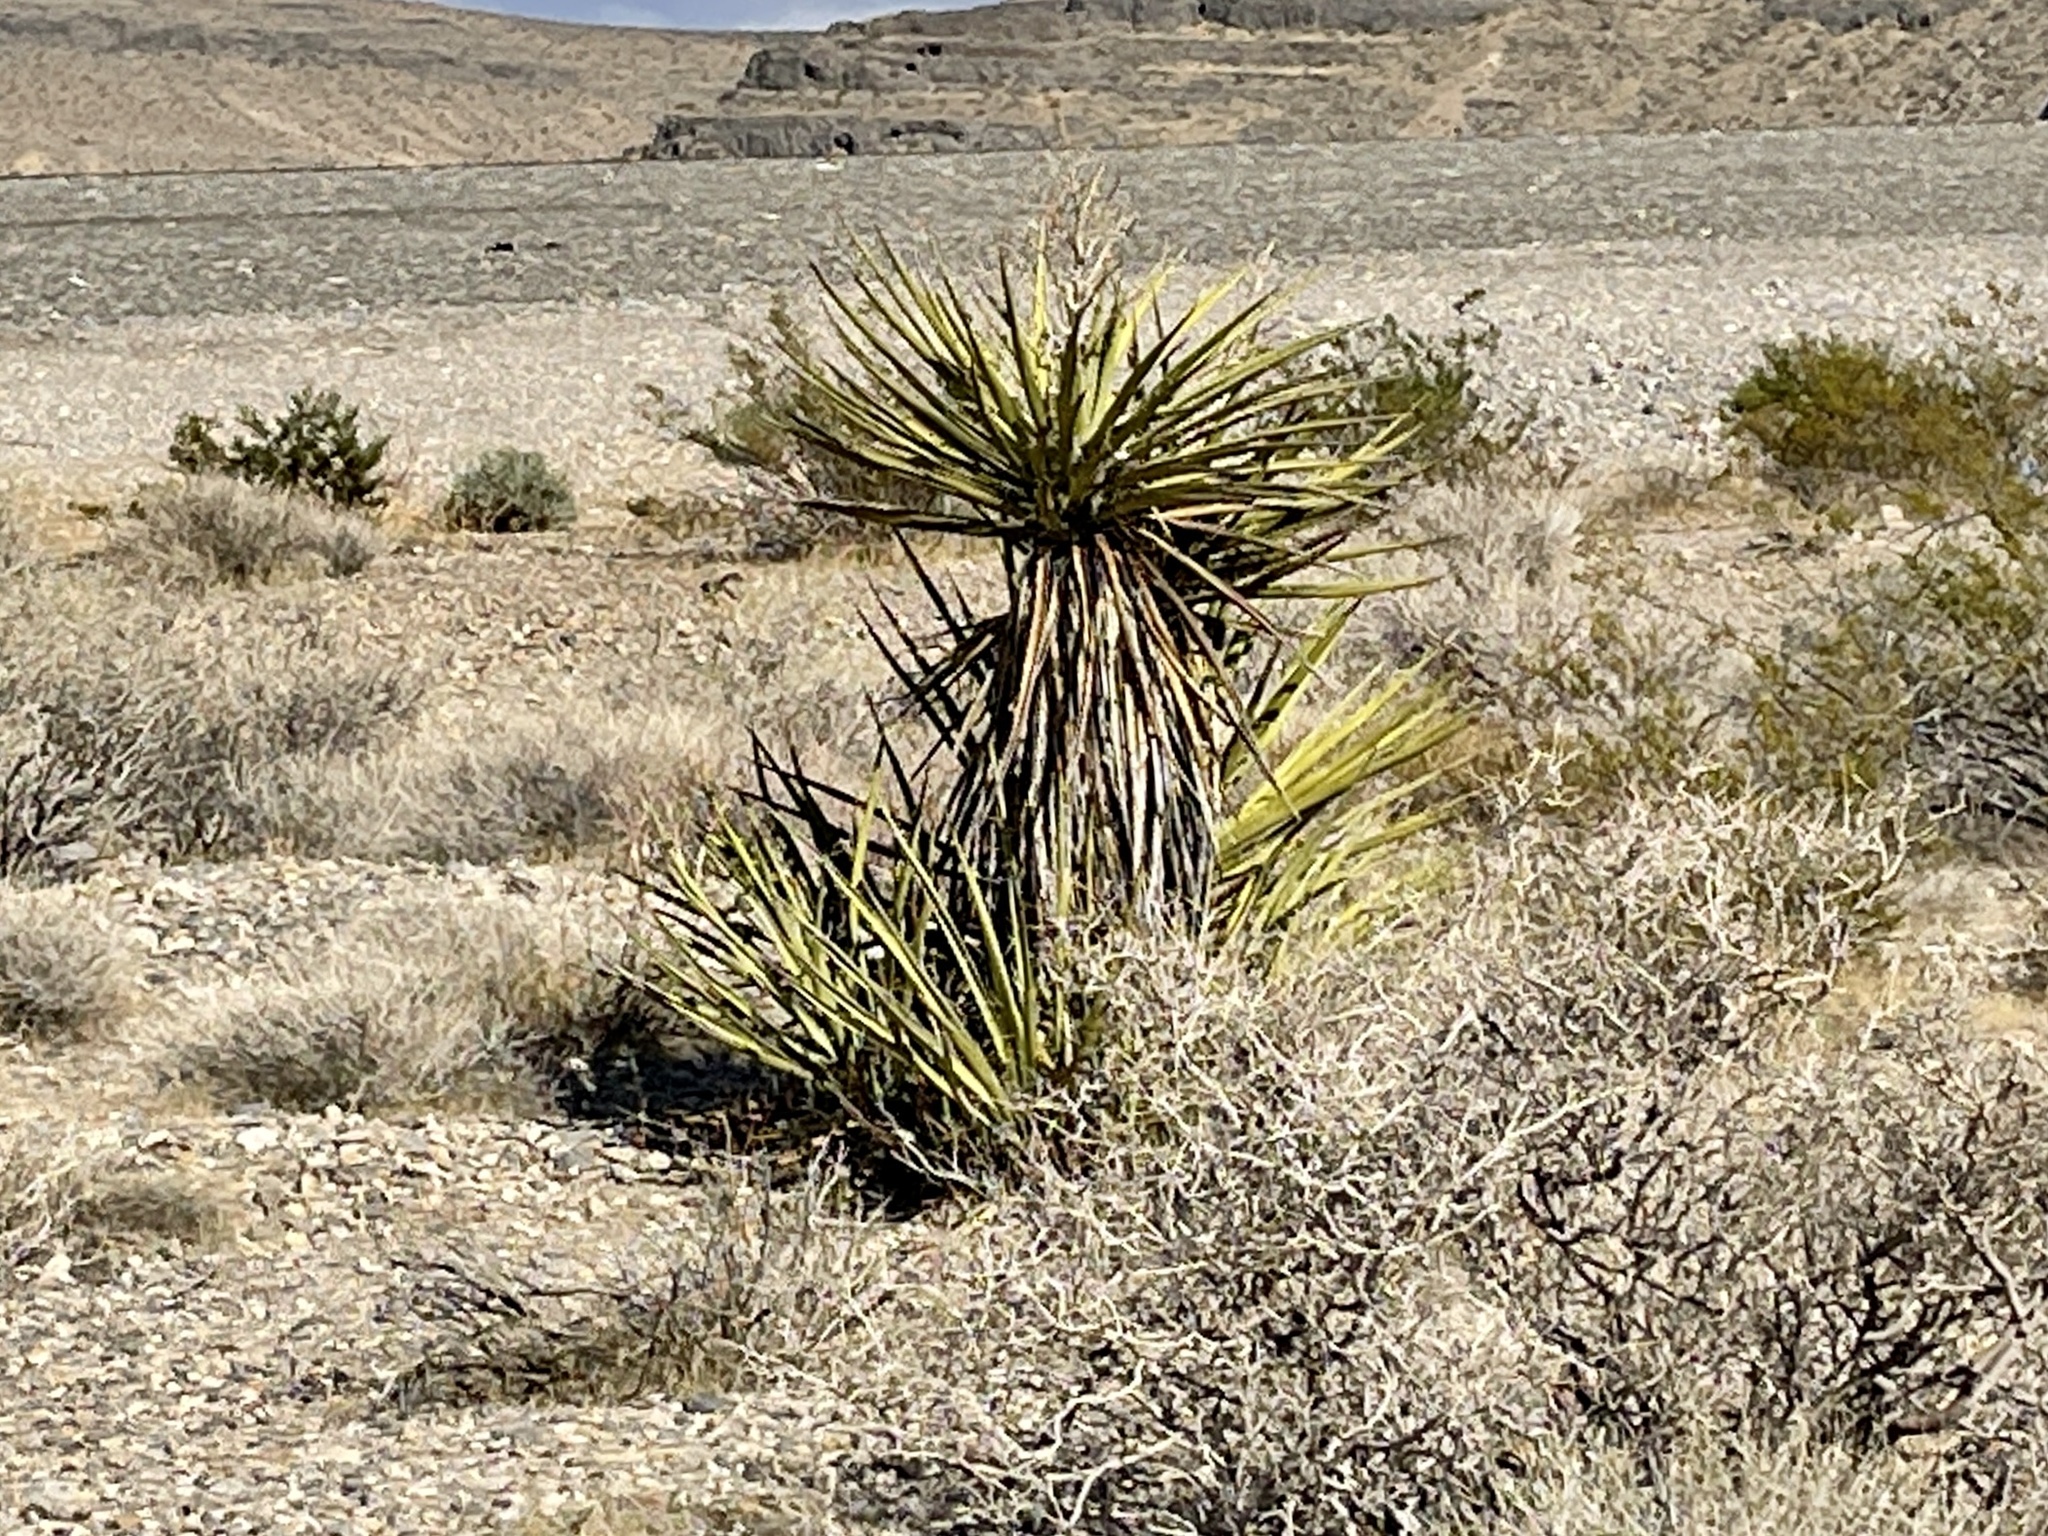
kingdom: Plantae
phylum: Tracheophyta
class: Liliopsida
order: Asparagales
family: Asparagaceae
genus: Yucca
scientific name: Yucca schidigera
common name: Mojave yucca
